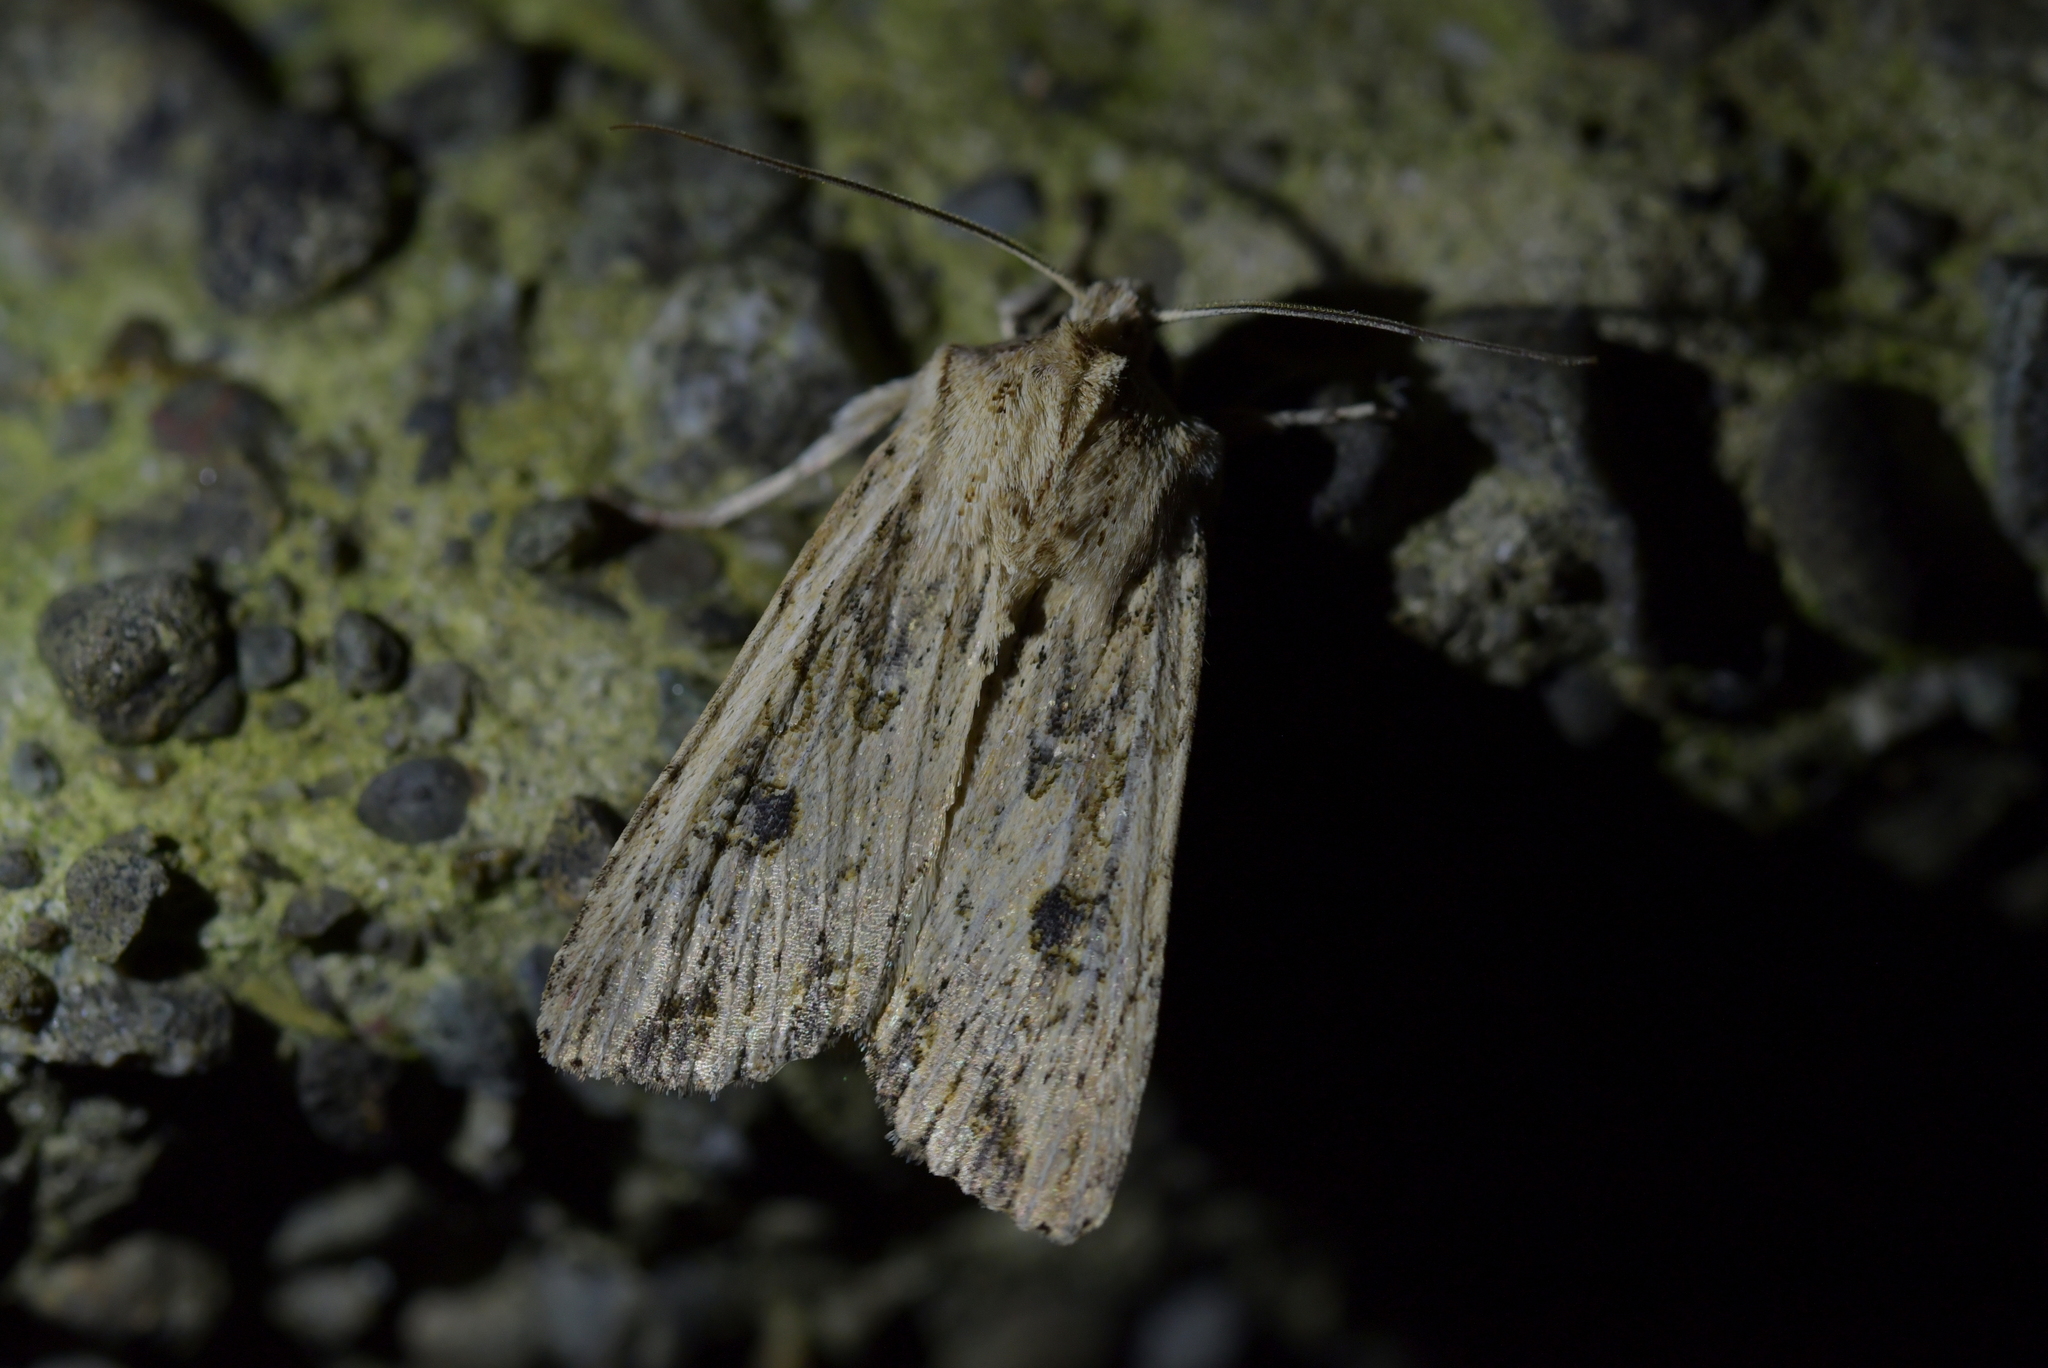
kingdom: Animalia
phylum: Arthropoda
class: Insecta
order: Lepidoptera
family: Noctuidae
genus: Ichneutica
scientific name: Ichneutica lignana
